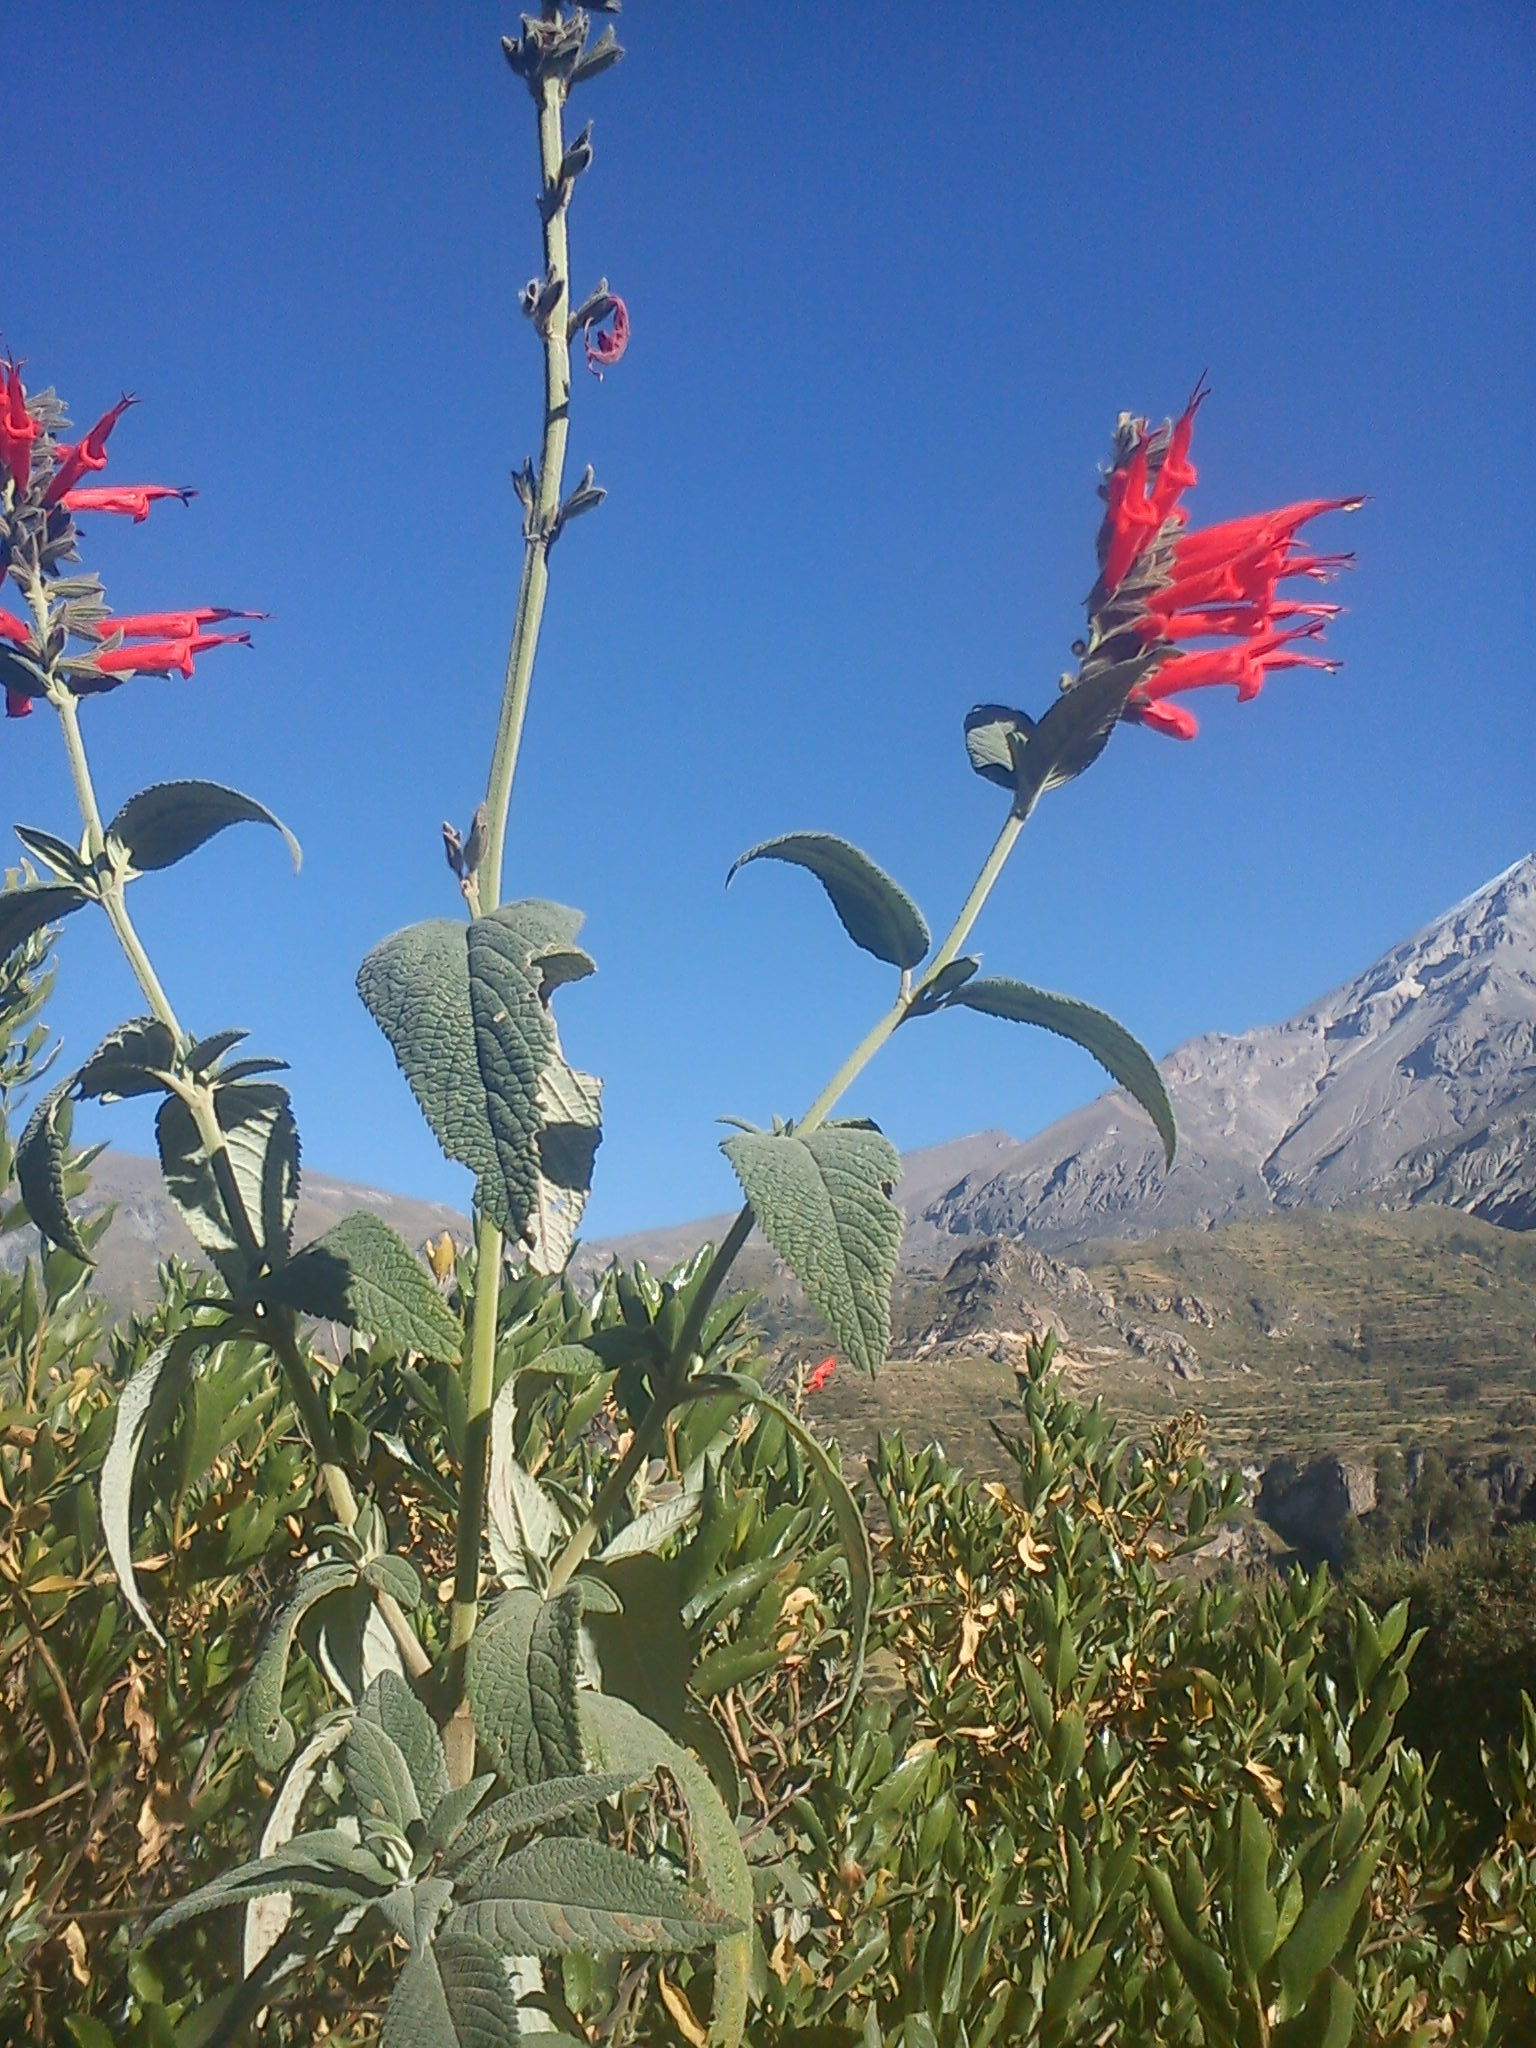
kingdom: Plantae
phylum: Tracheophyta
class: Magnoliopsida
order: Lamiales
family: Lamiaceae
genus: Salvia
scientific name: Salvia haenkei
